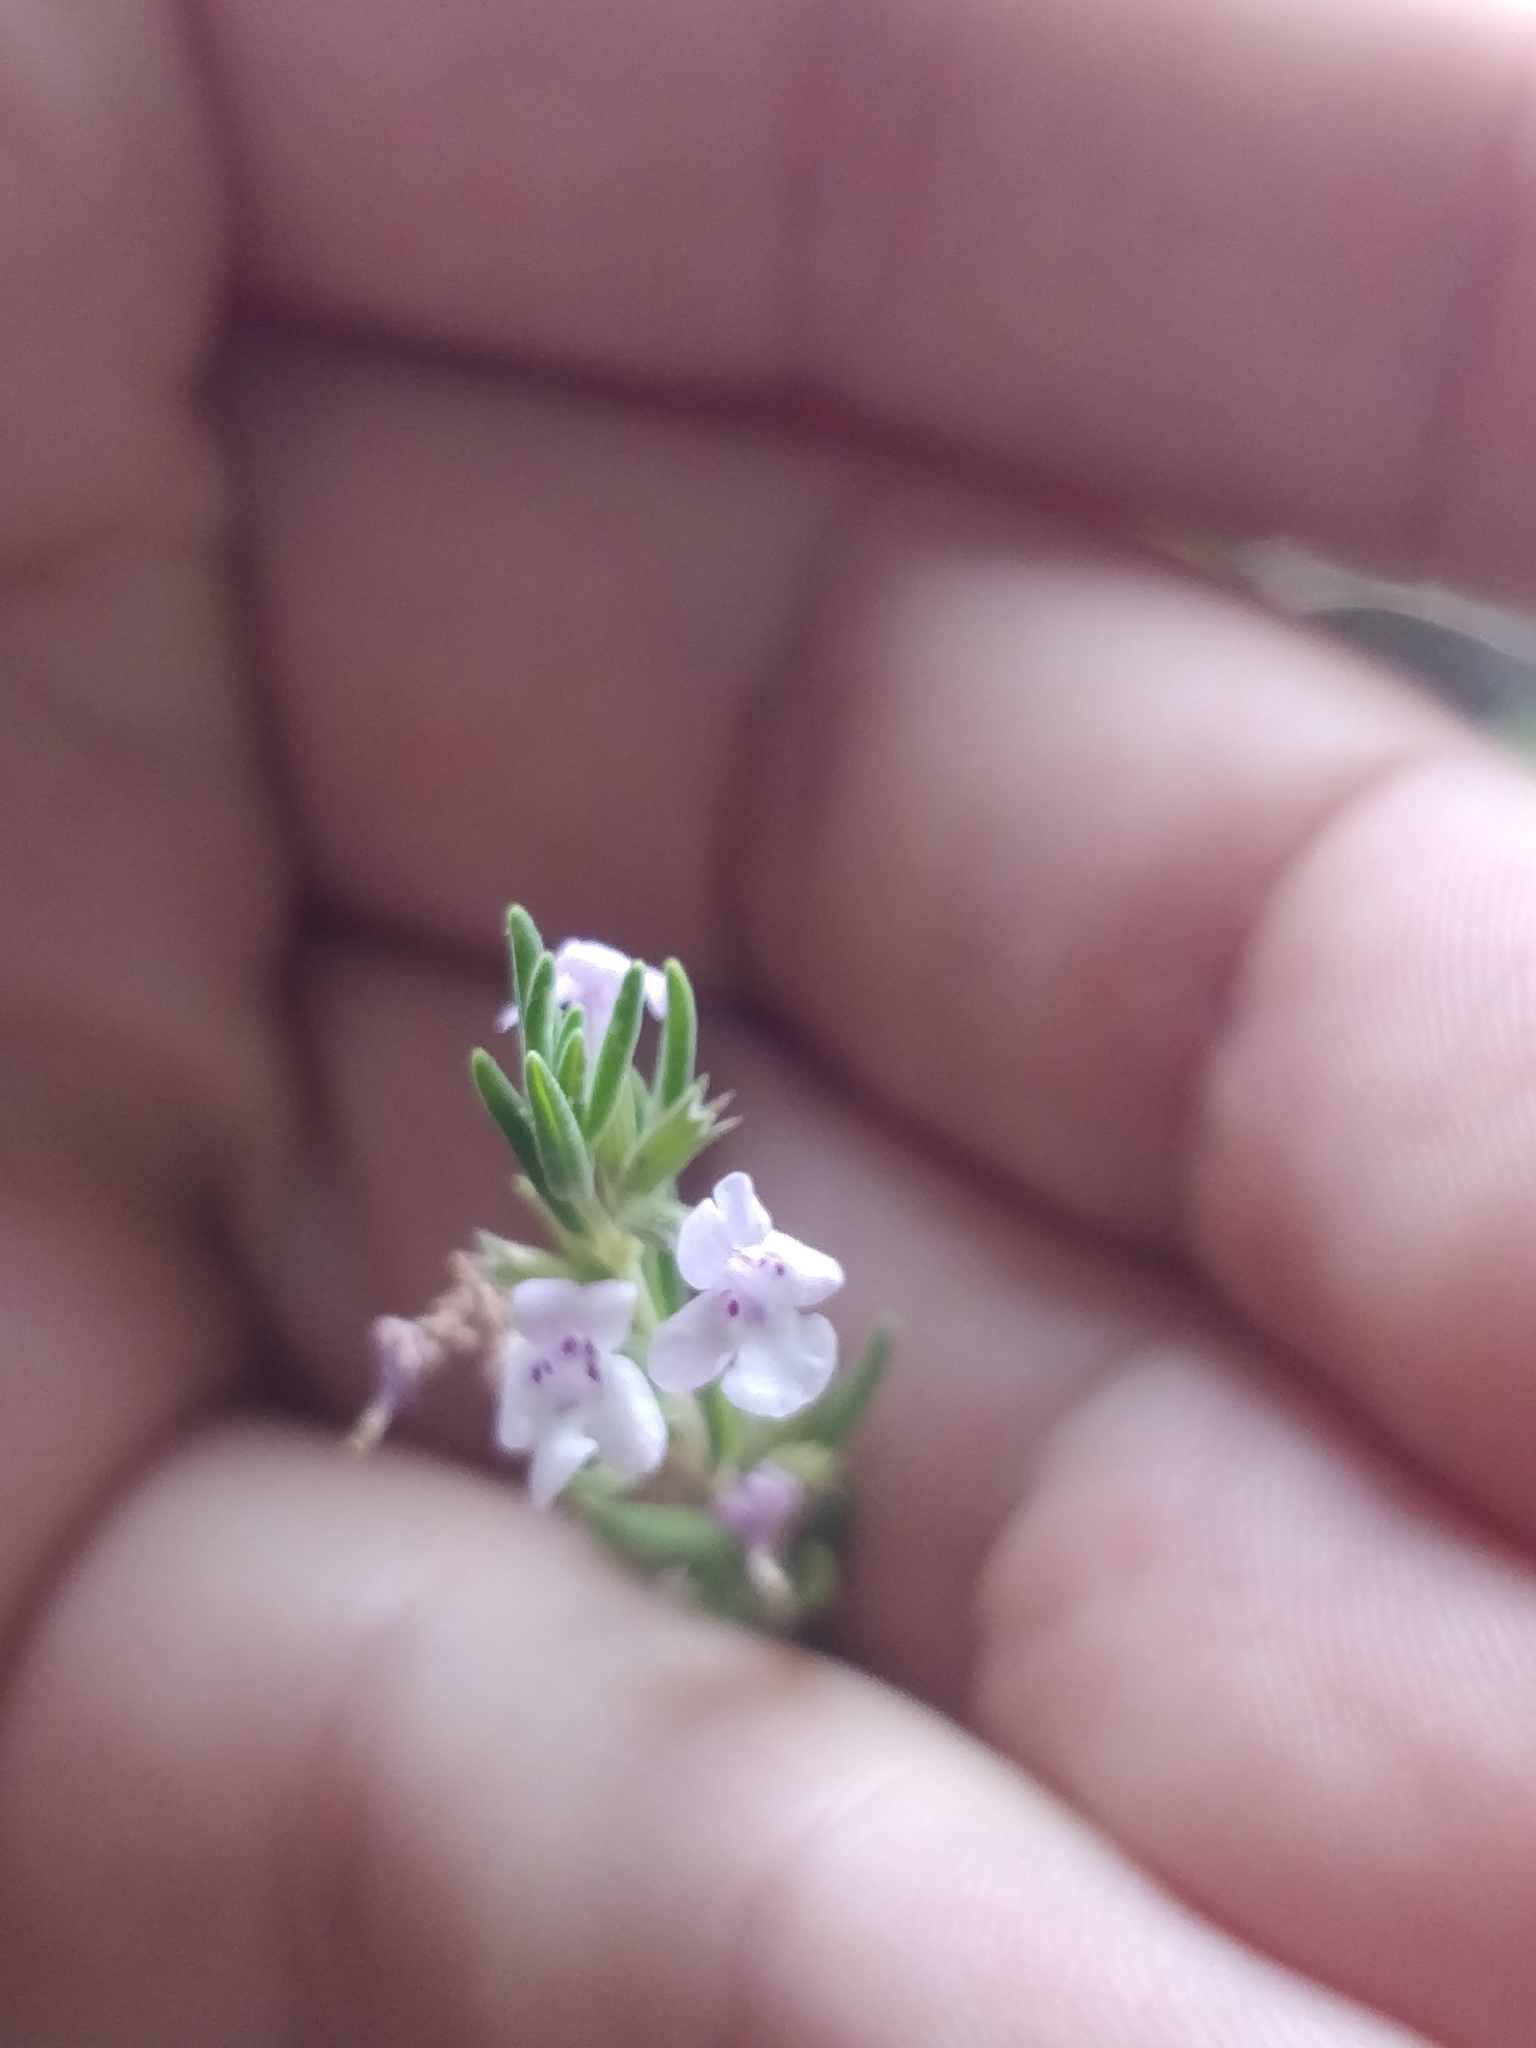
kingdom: Plantae
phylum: Tracheophyta
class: Magnoliopsida
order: Lamiales
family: Lamiaceae
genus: Micromeria
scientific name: Micromeria maderensis
